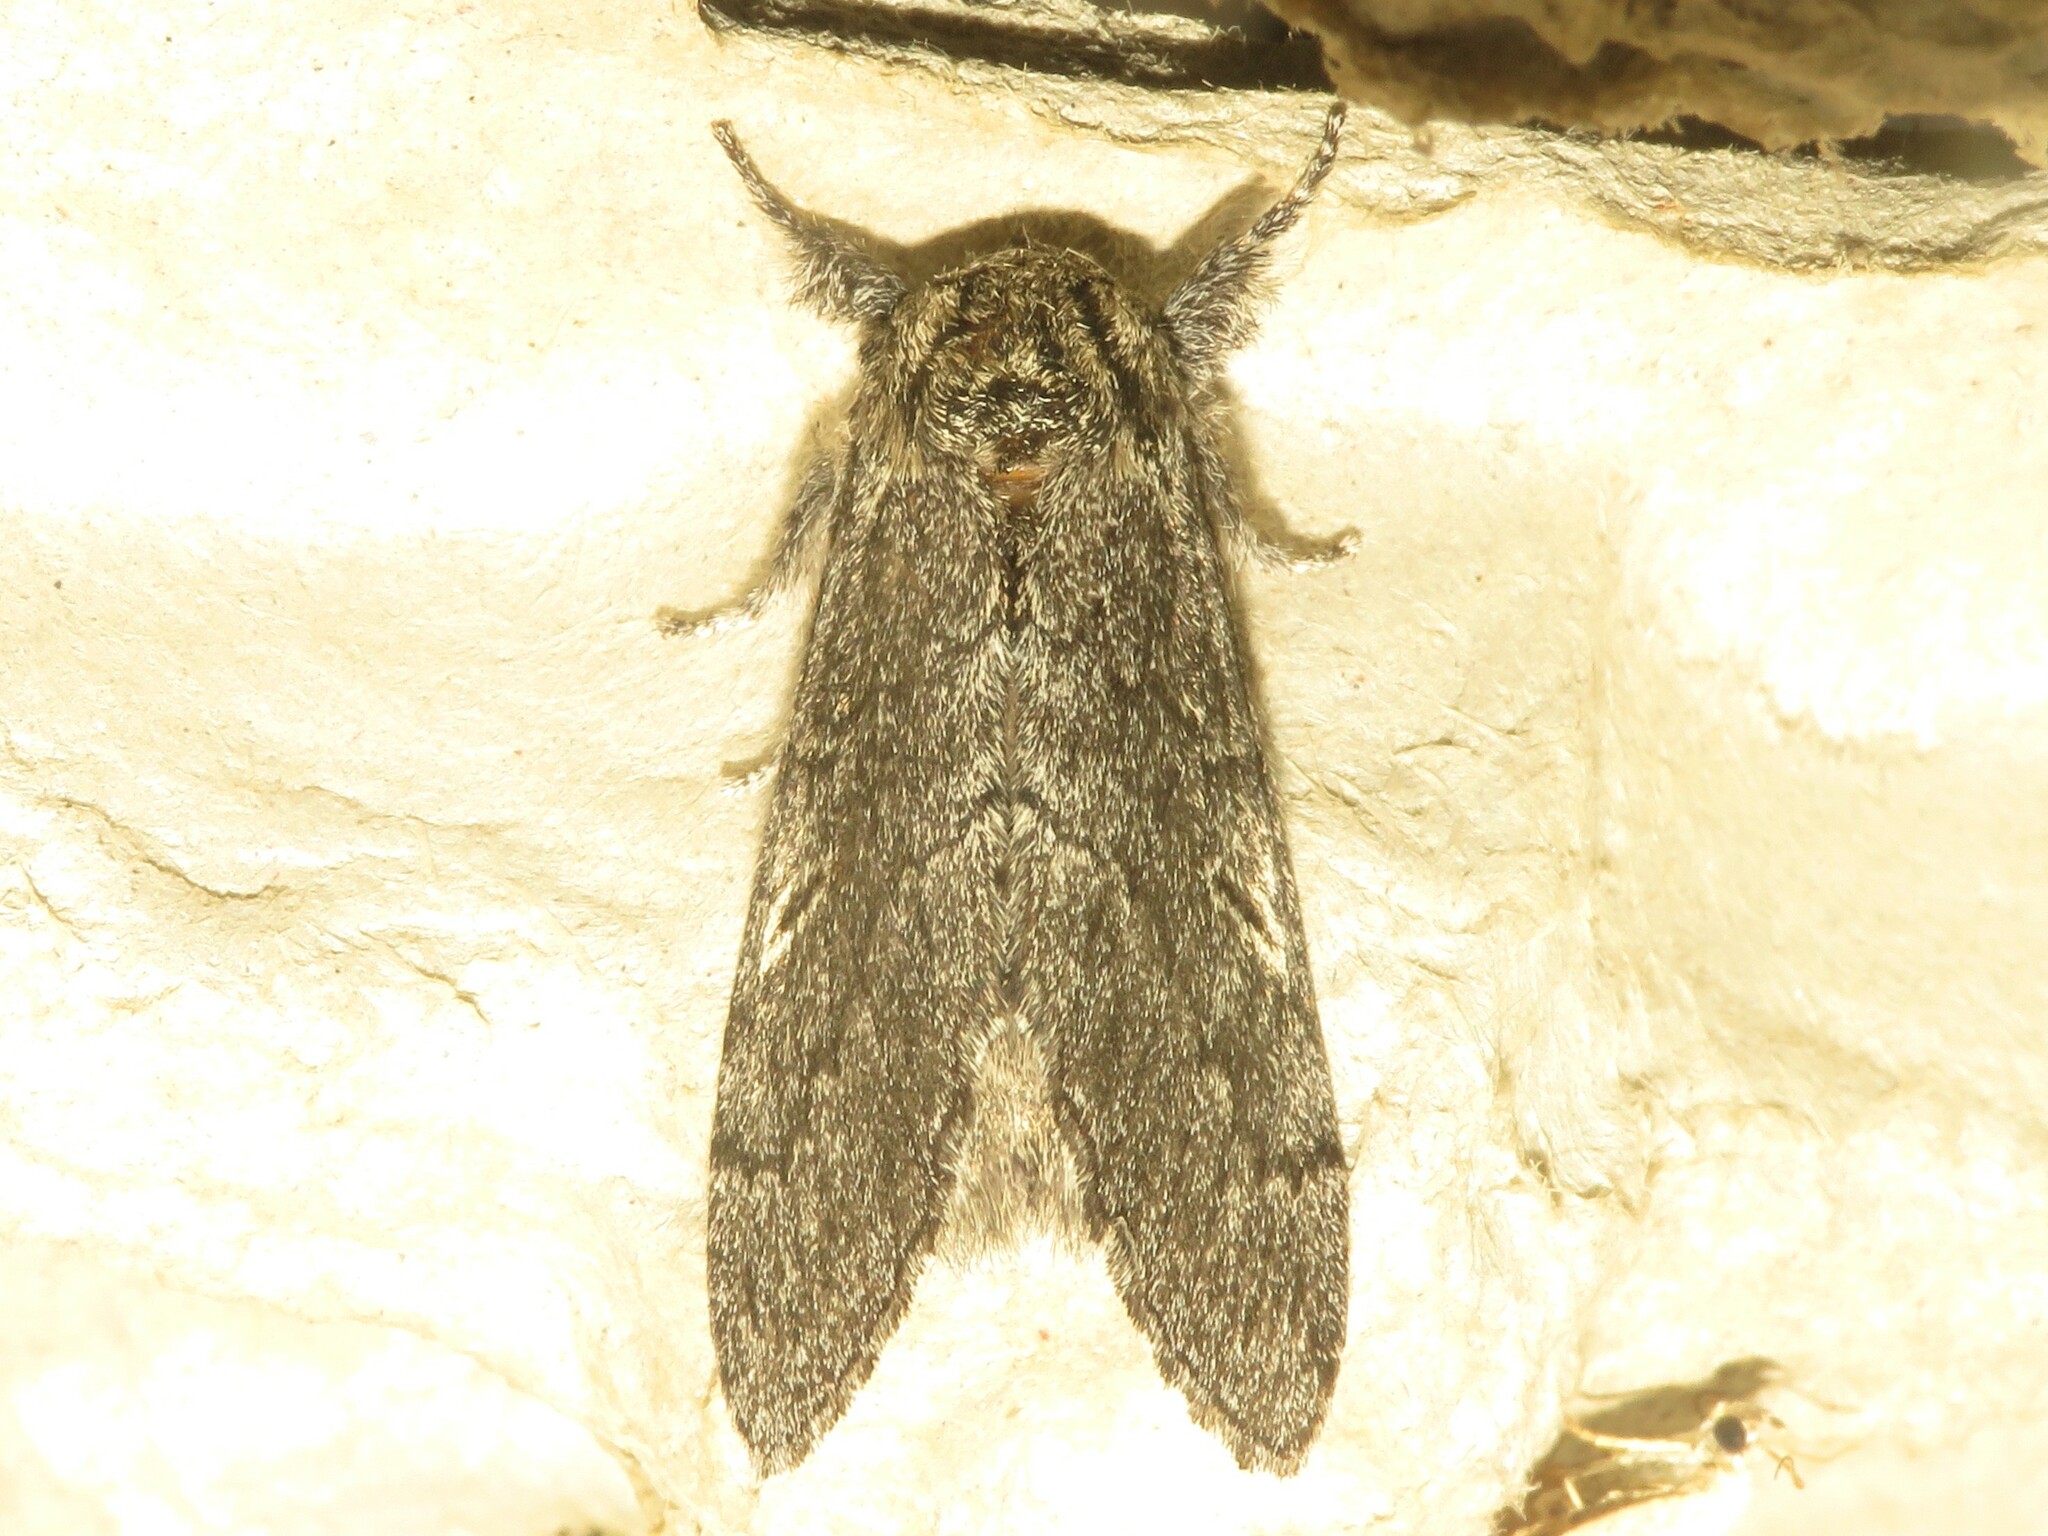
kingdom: Animalia
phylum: Arthropoda
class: Insecta
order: Lepidoptera
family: Notodontidae
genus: Notodonta
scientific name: Notodonta torva
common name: Large dark prominent
